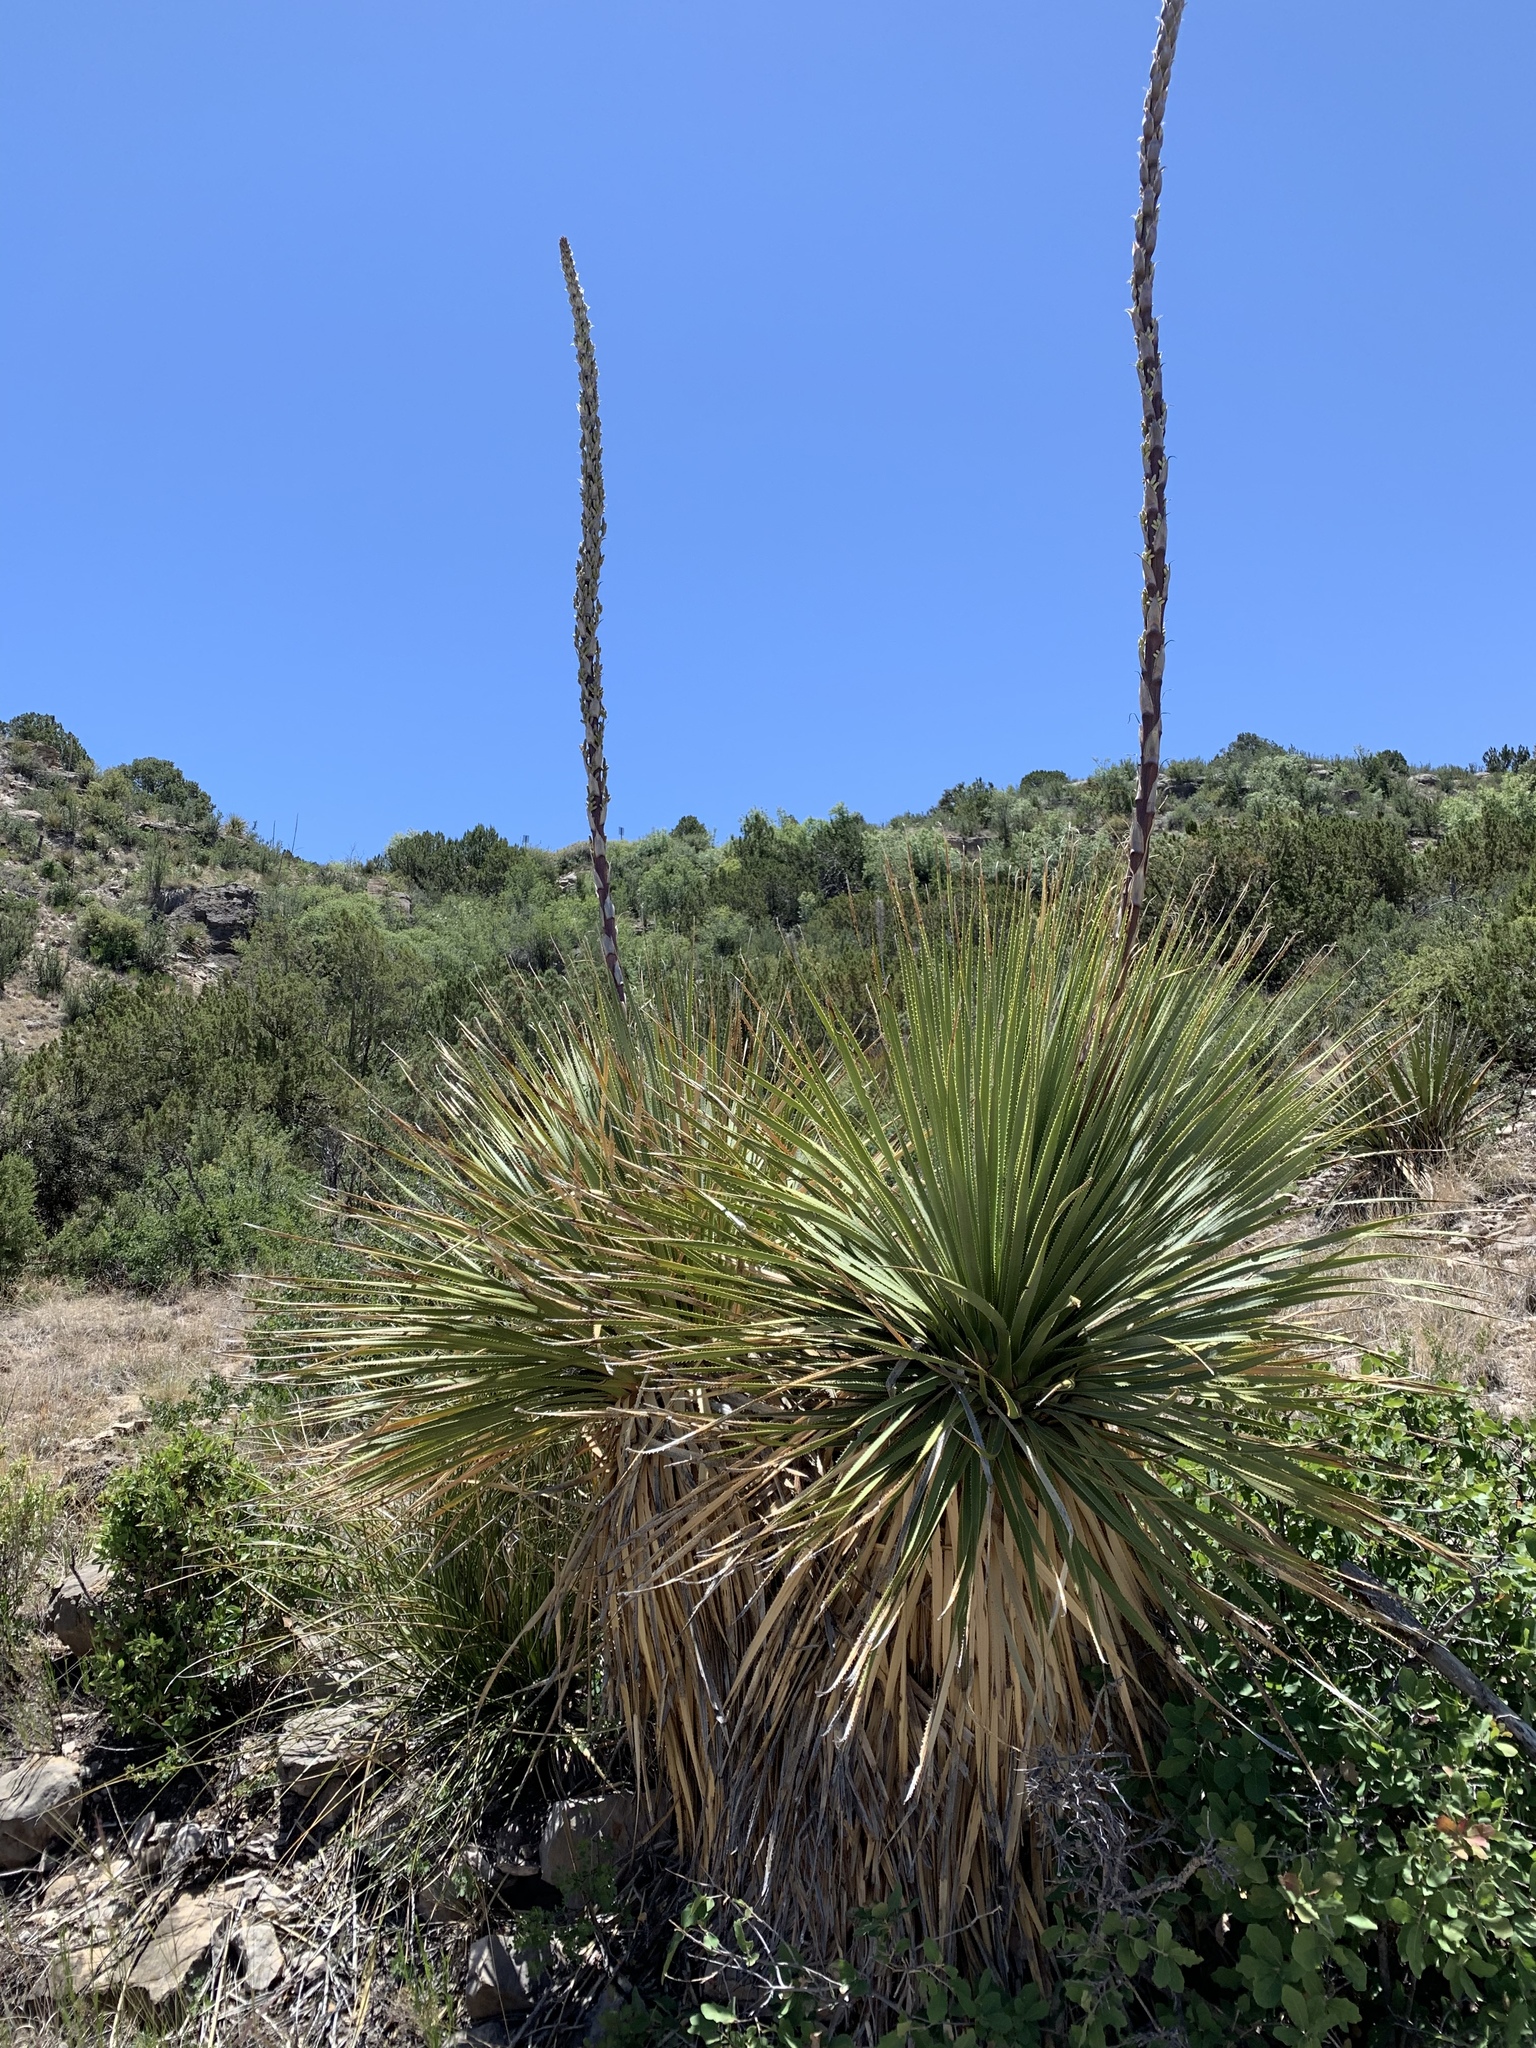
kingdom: Plantae
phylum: Tracheophyta
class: Liliopsida
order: Asparagales
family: Asparagaceae
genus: Dasylirion
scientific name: Dasylirion wheeleri
